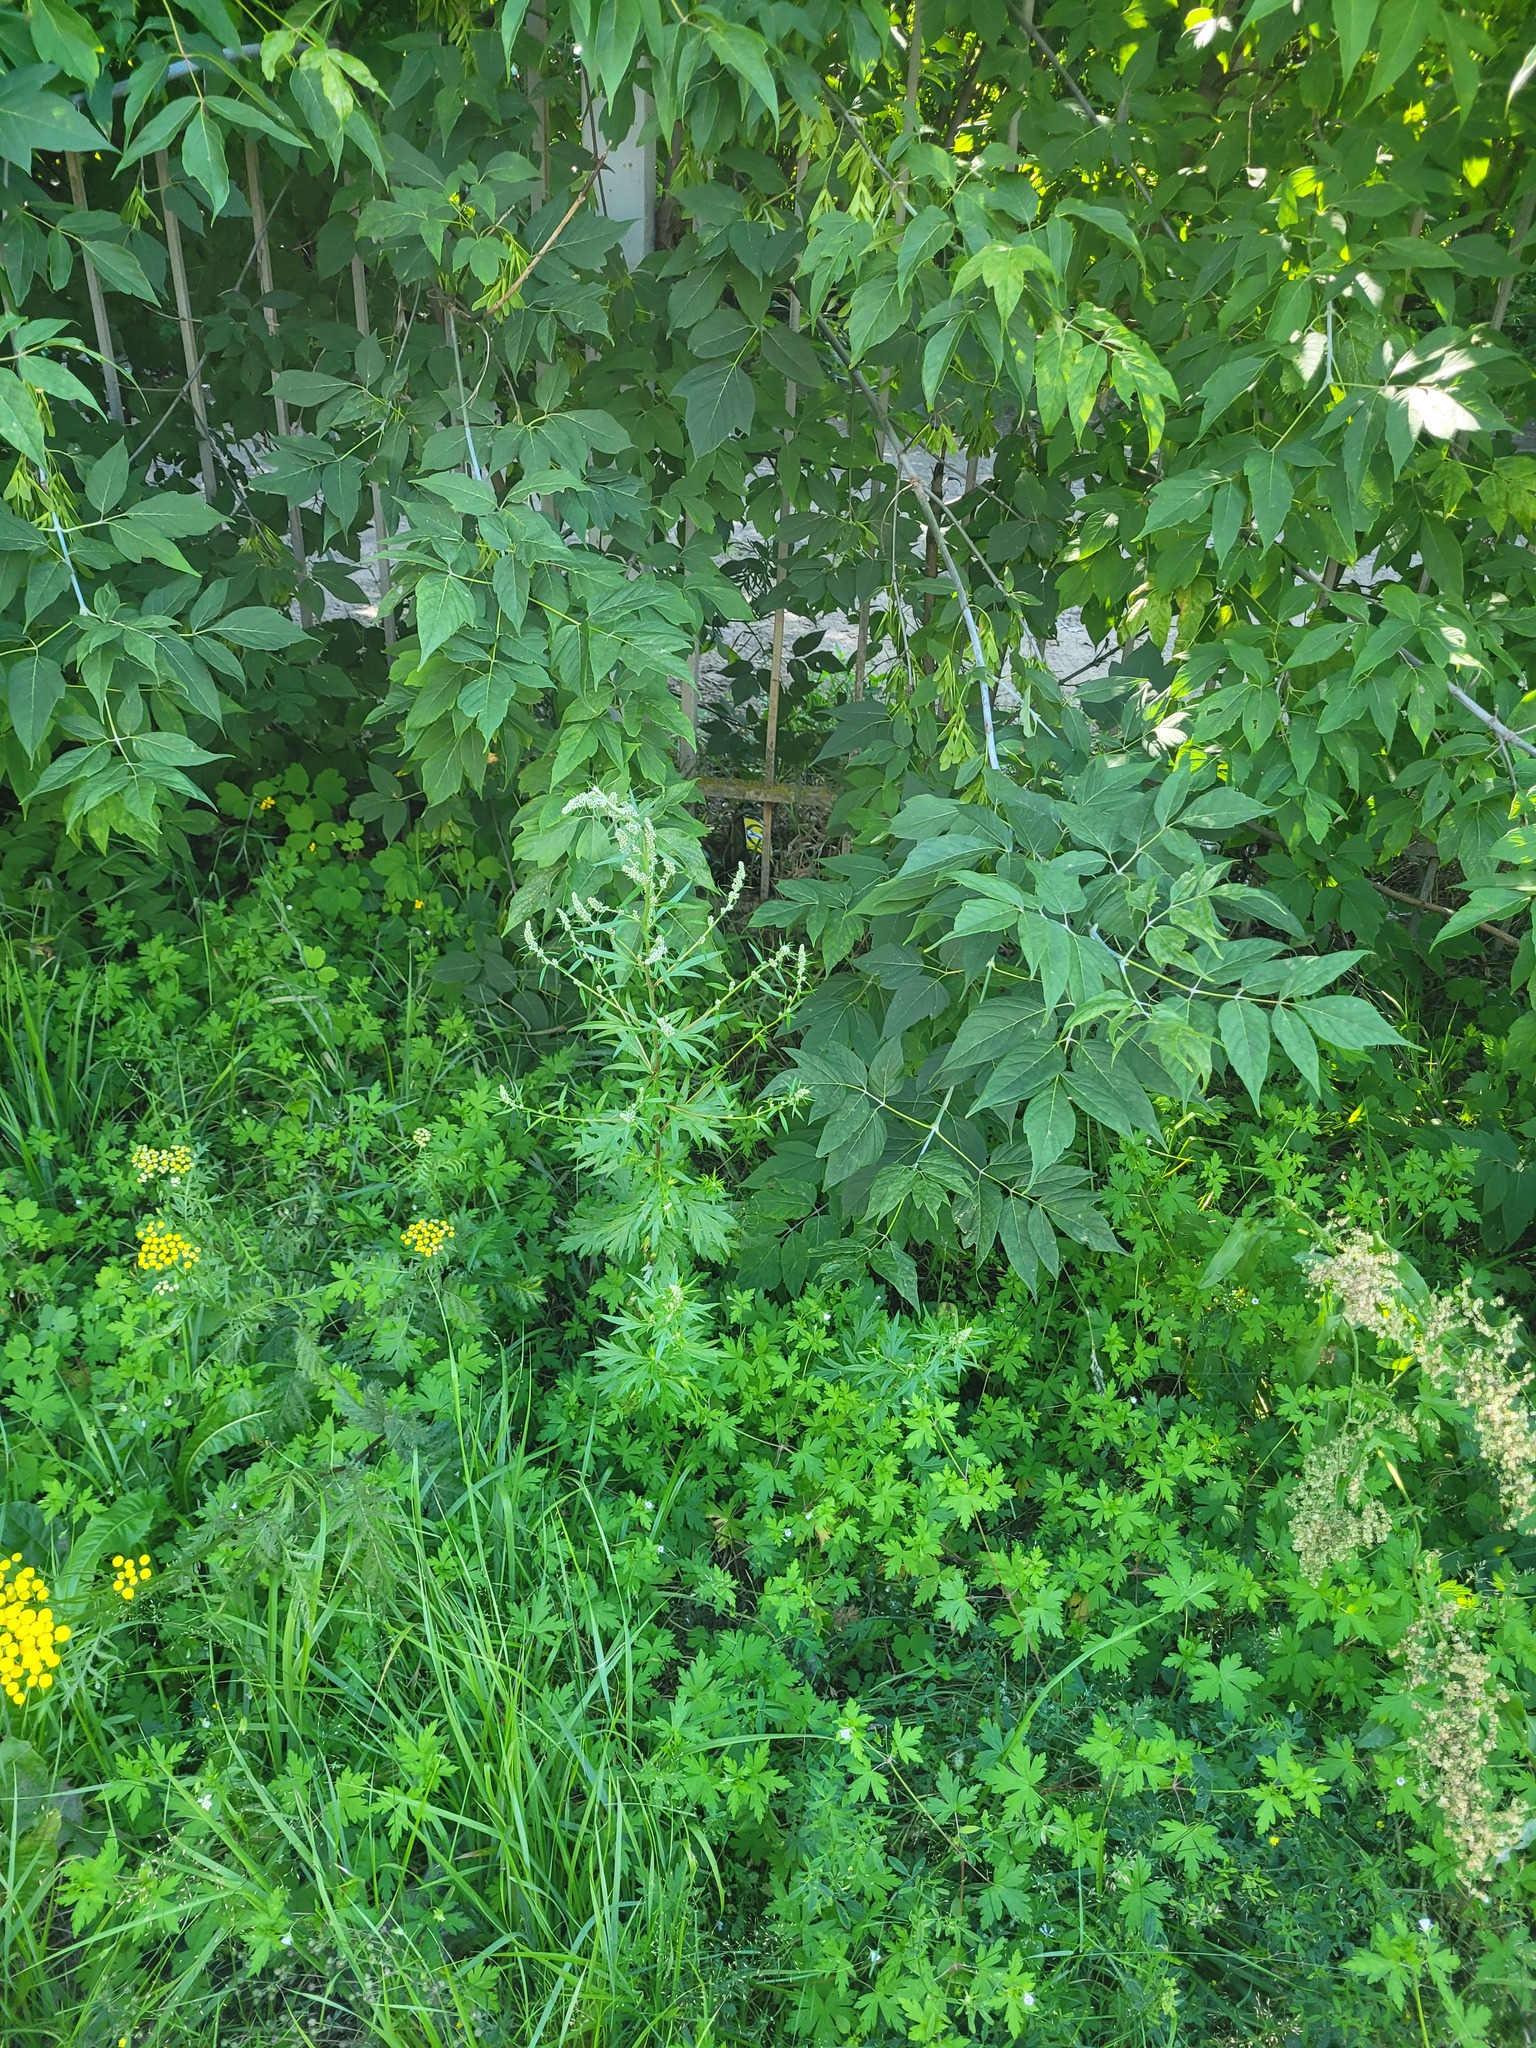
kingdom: Plantae
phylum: Tracheophyta
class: Magnoliopsida
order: Asterales
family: Asteraceae
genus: Artemisia
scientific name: Artemisia vulgaris
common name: Mugwort
